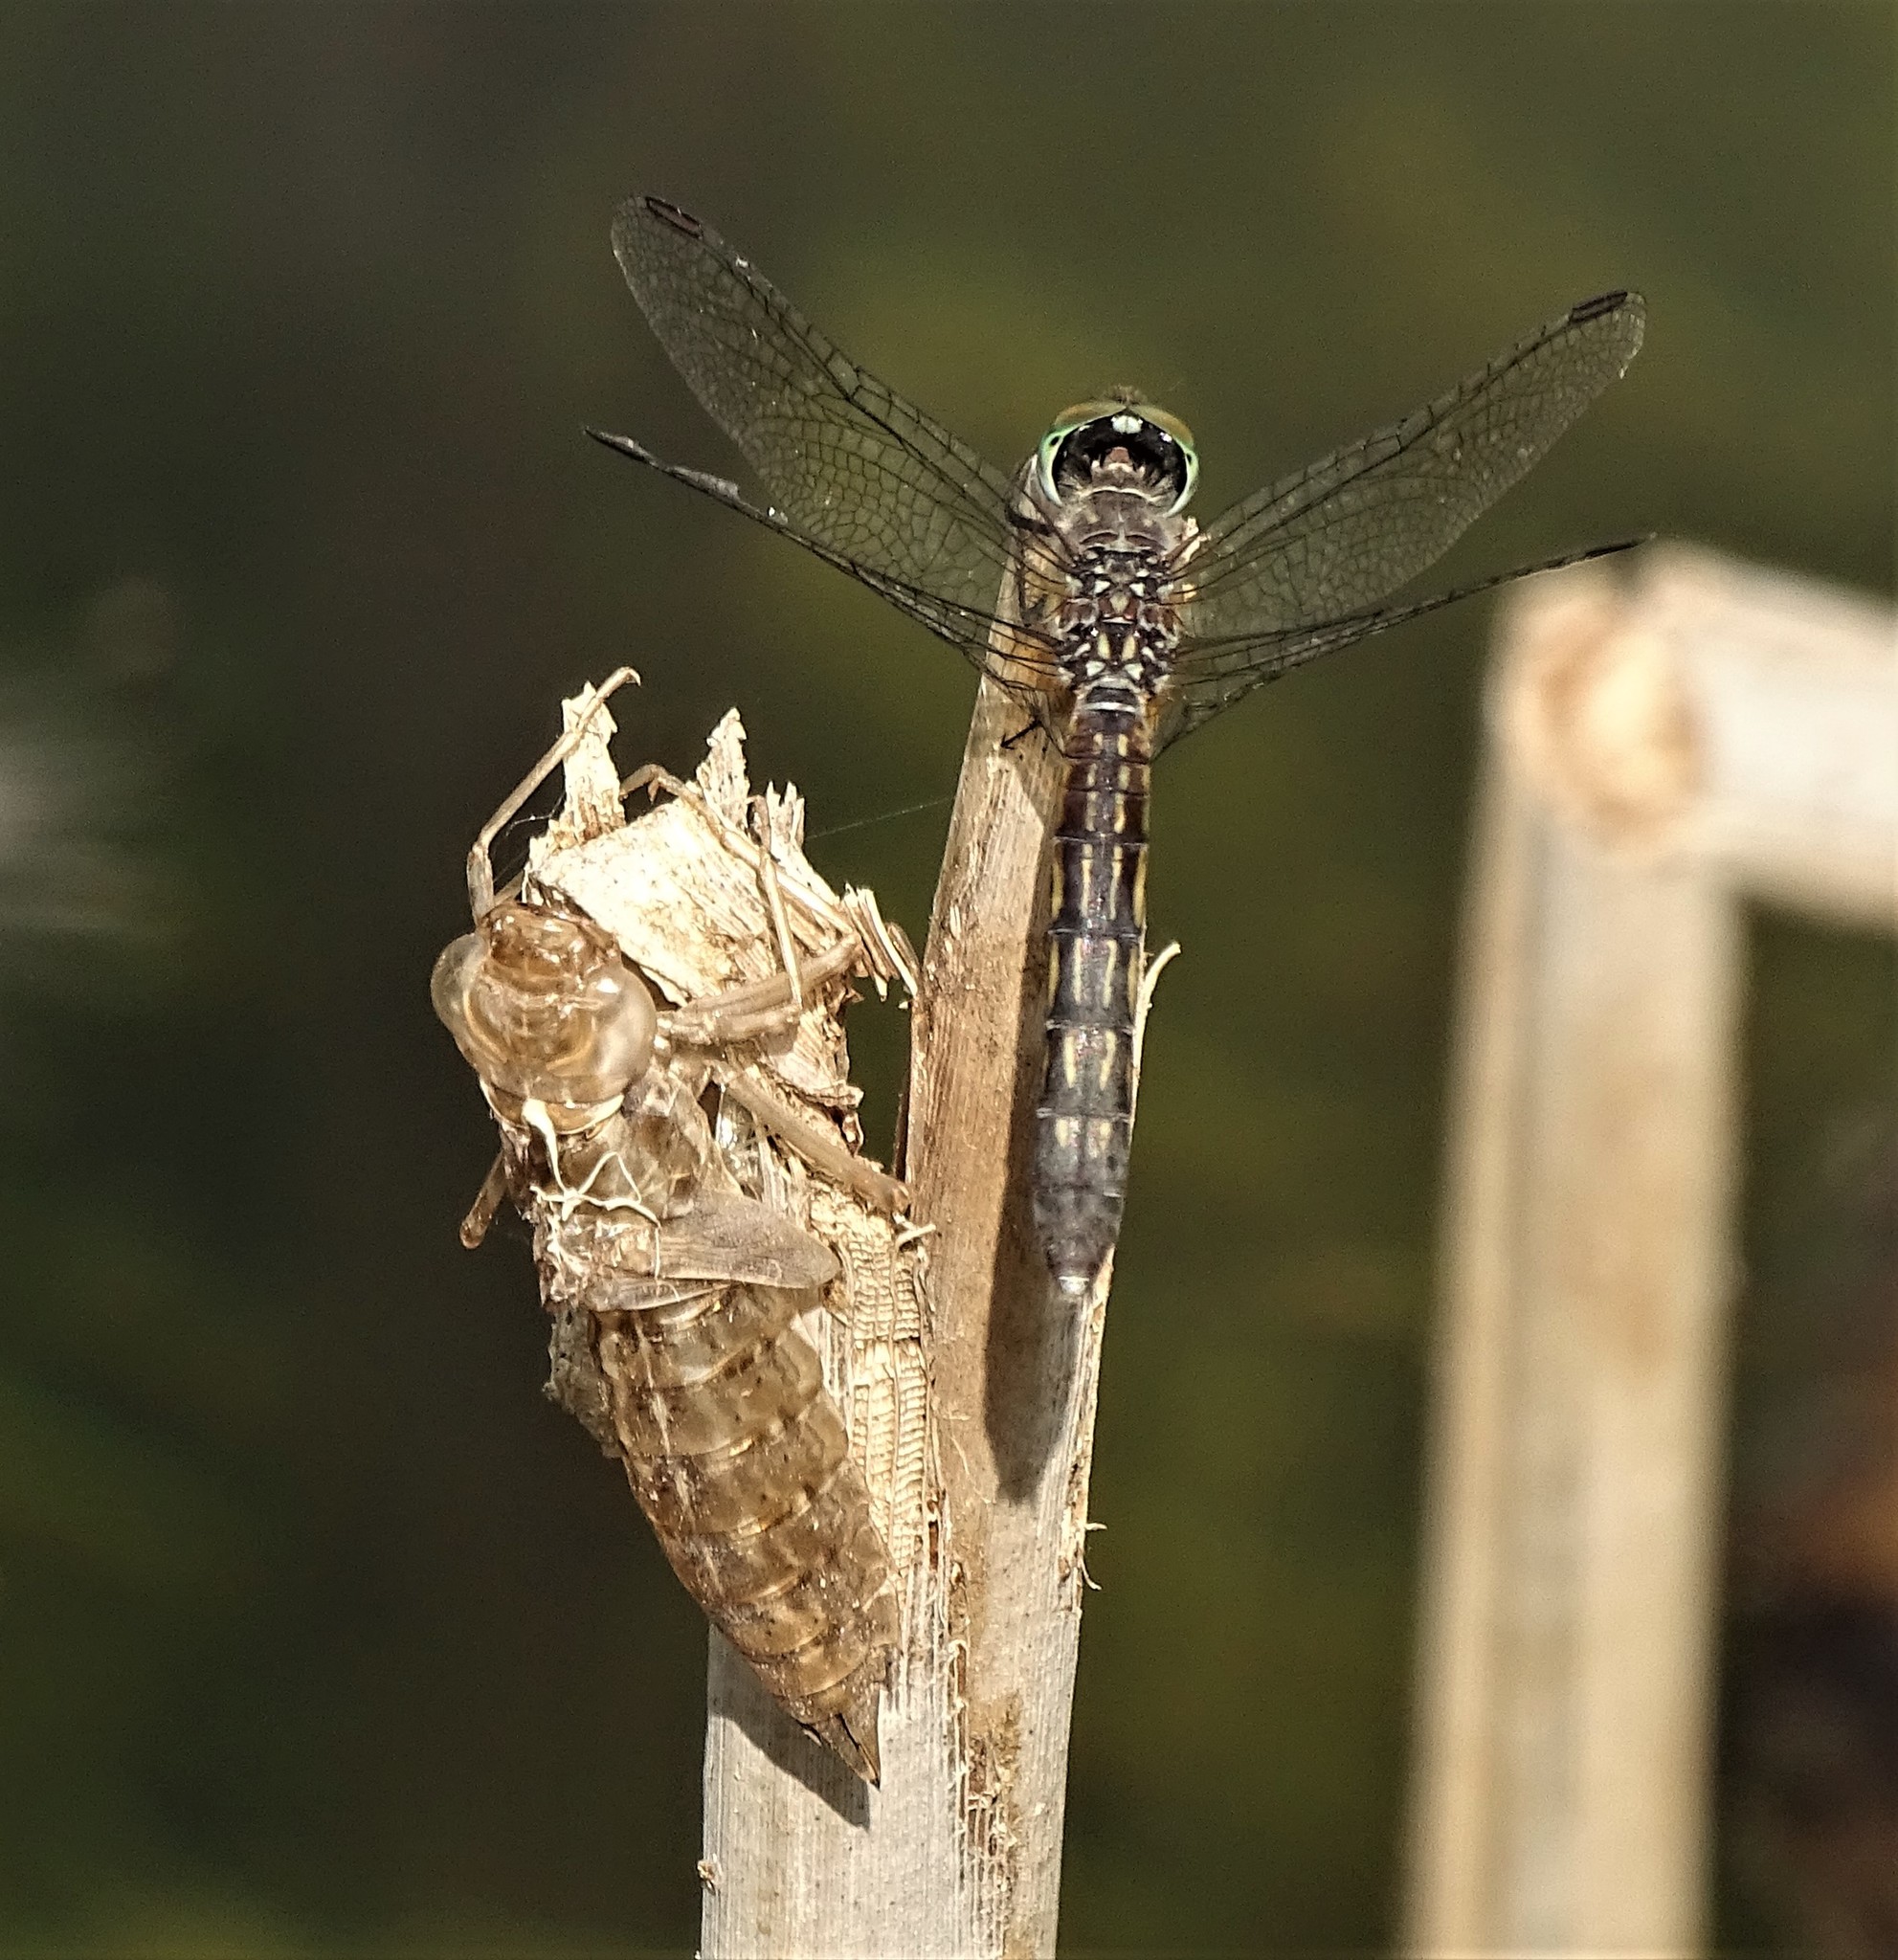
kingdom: Animalia
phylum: Arthropoda
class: Insecta
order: Odonata
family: Libellulidae
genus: Pachydiplax
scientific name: Pachydiplax longipennis
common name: Blue dasher
